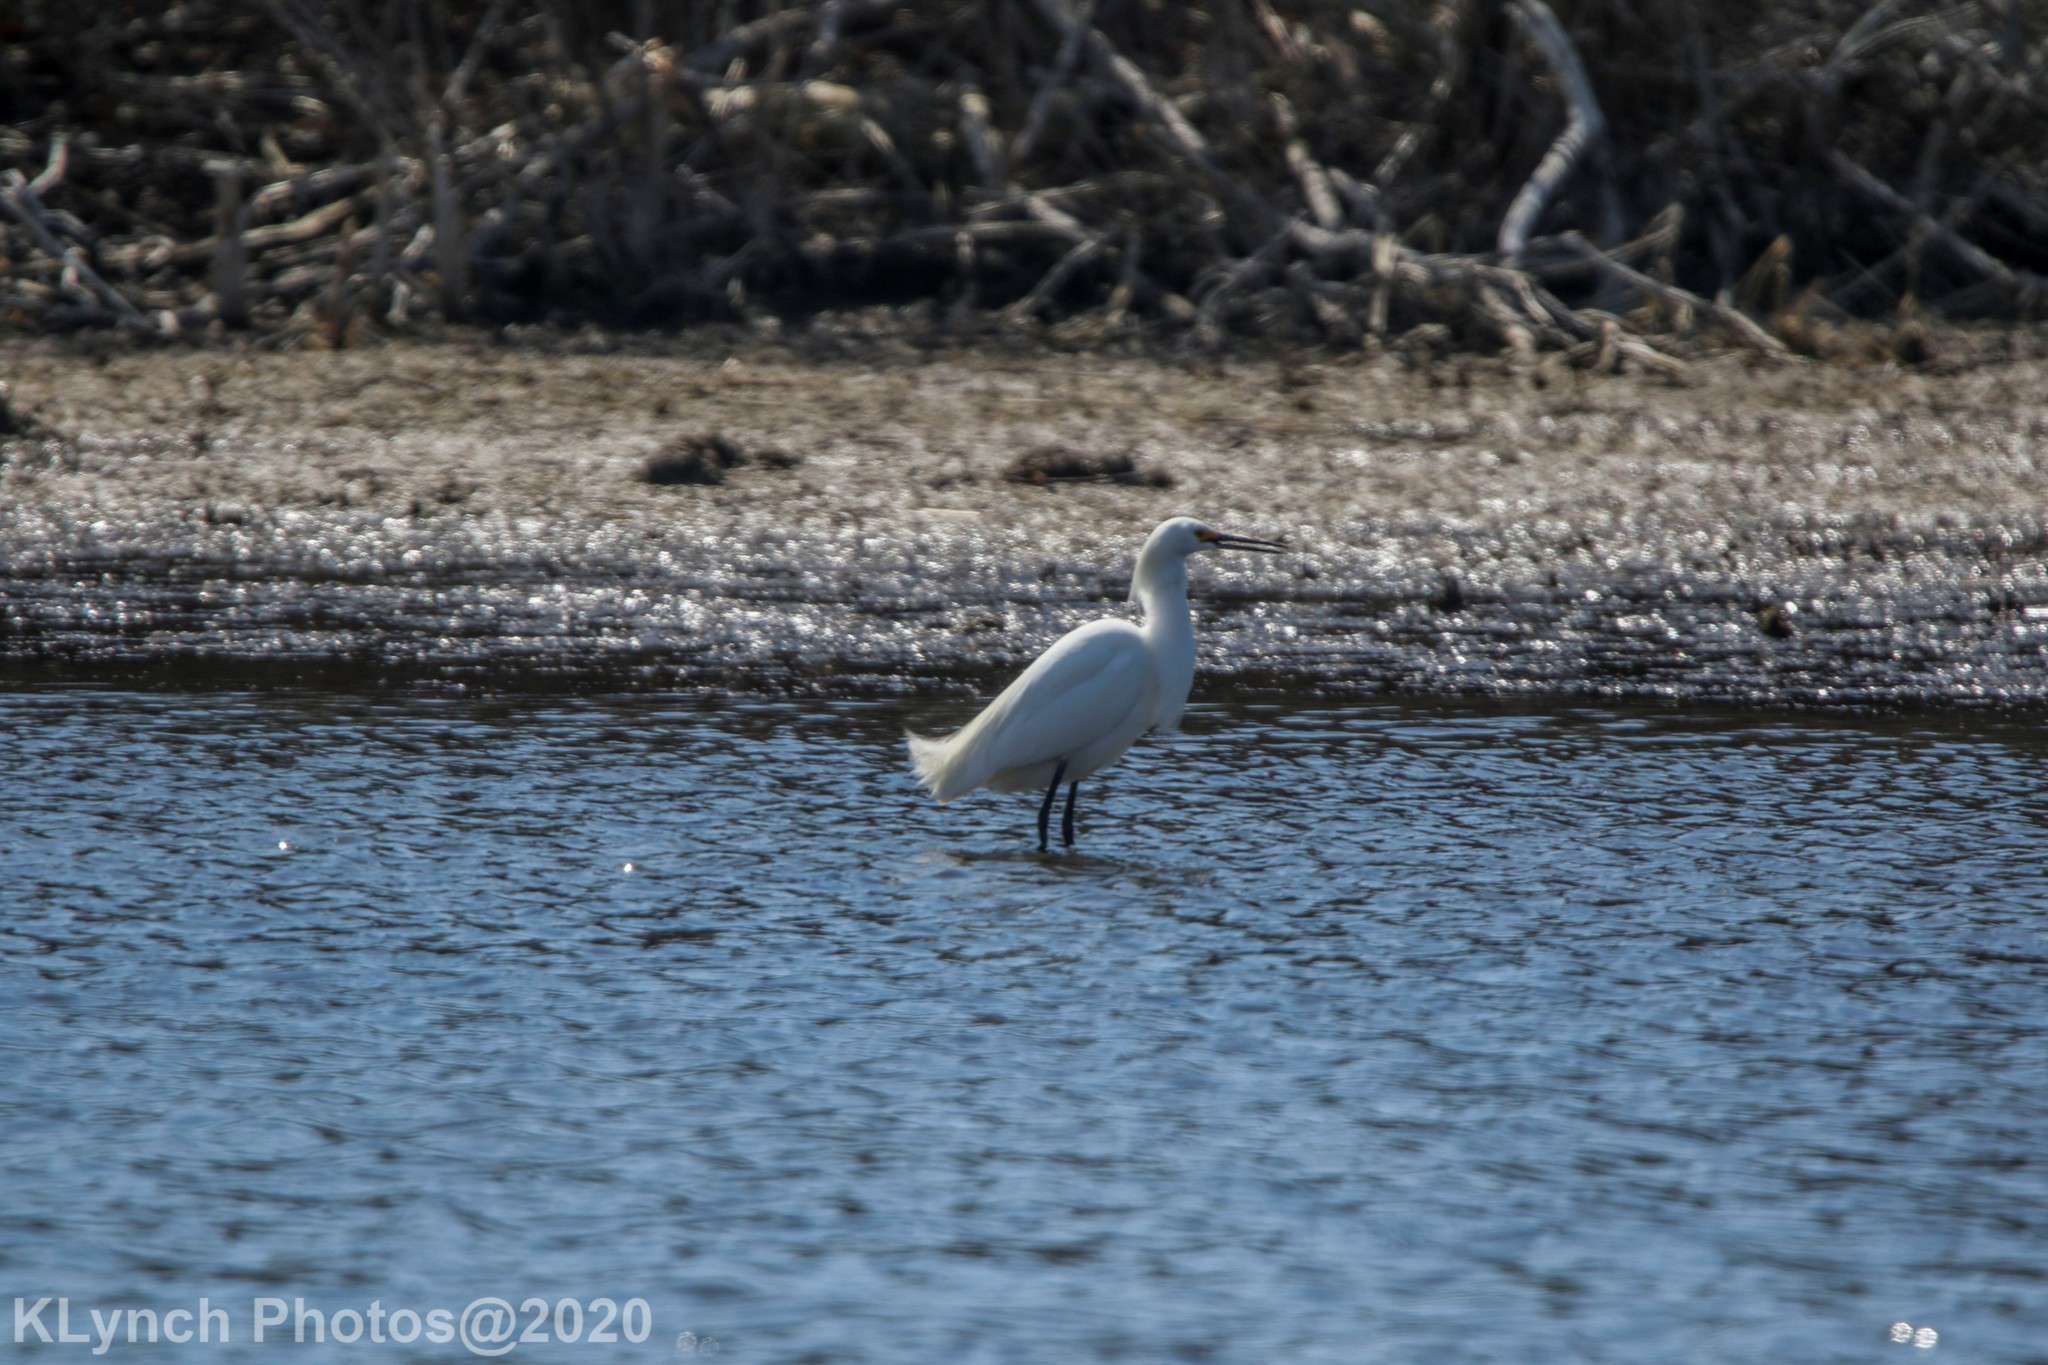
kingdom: Animalia
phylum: Chordata
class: Aves
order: Pelecaniformes
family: Ardeidae
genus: Egretta
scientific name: Egretta thula
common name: Snowy egret
